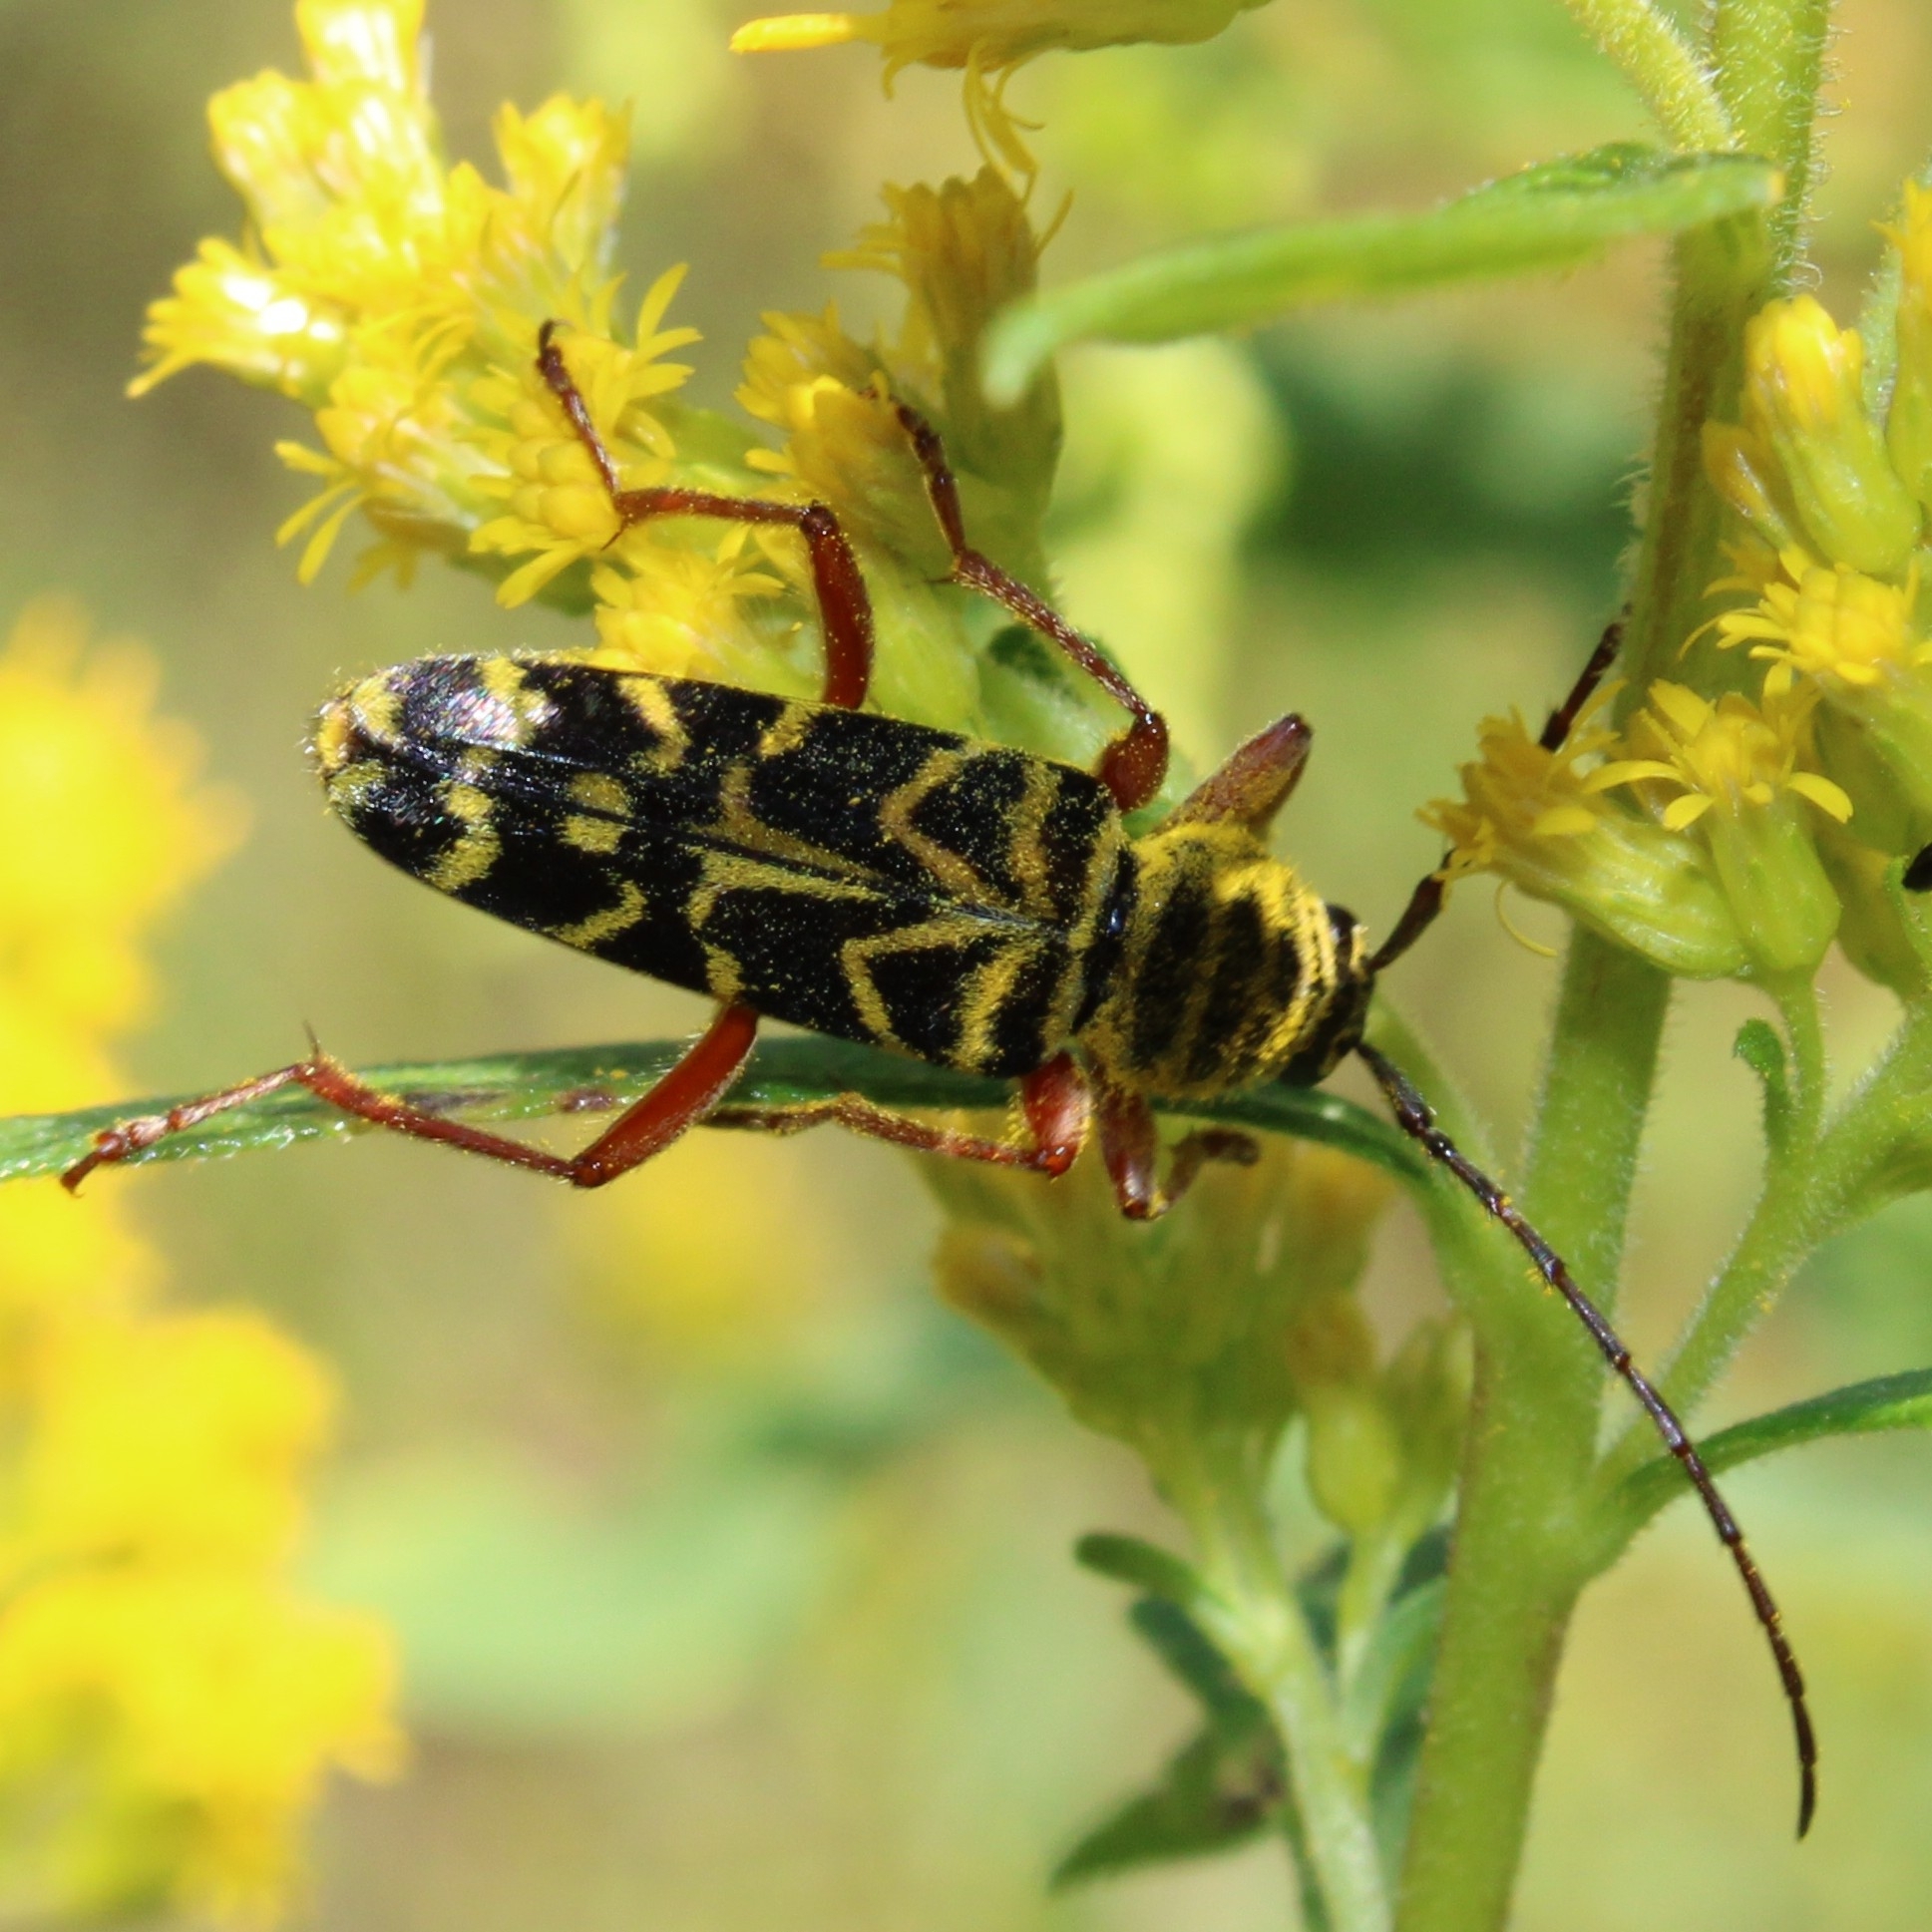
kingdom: Animalia
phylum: Arthropoda
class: Insecta
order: Coleoptera
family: Cerambycidae
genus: Megacyllene
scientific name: Megacyllene robiniae
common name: Locust borer
